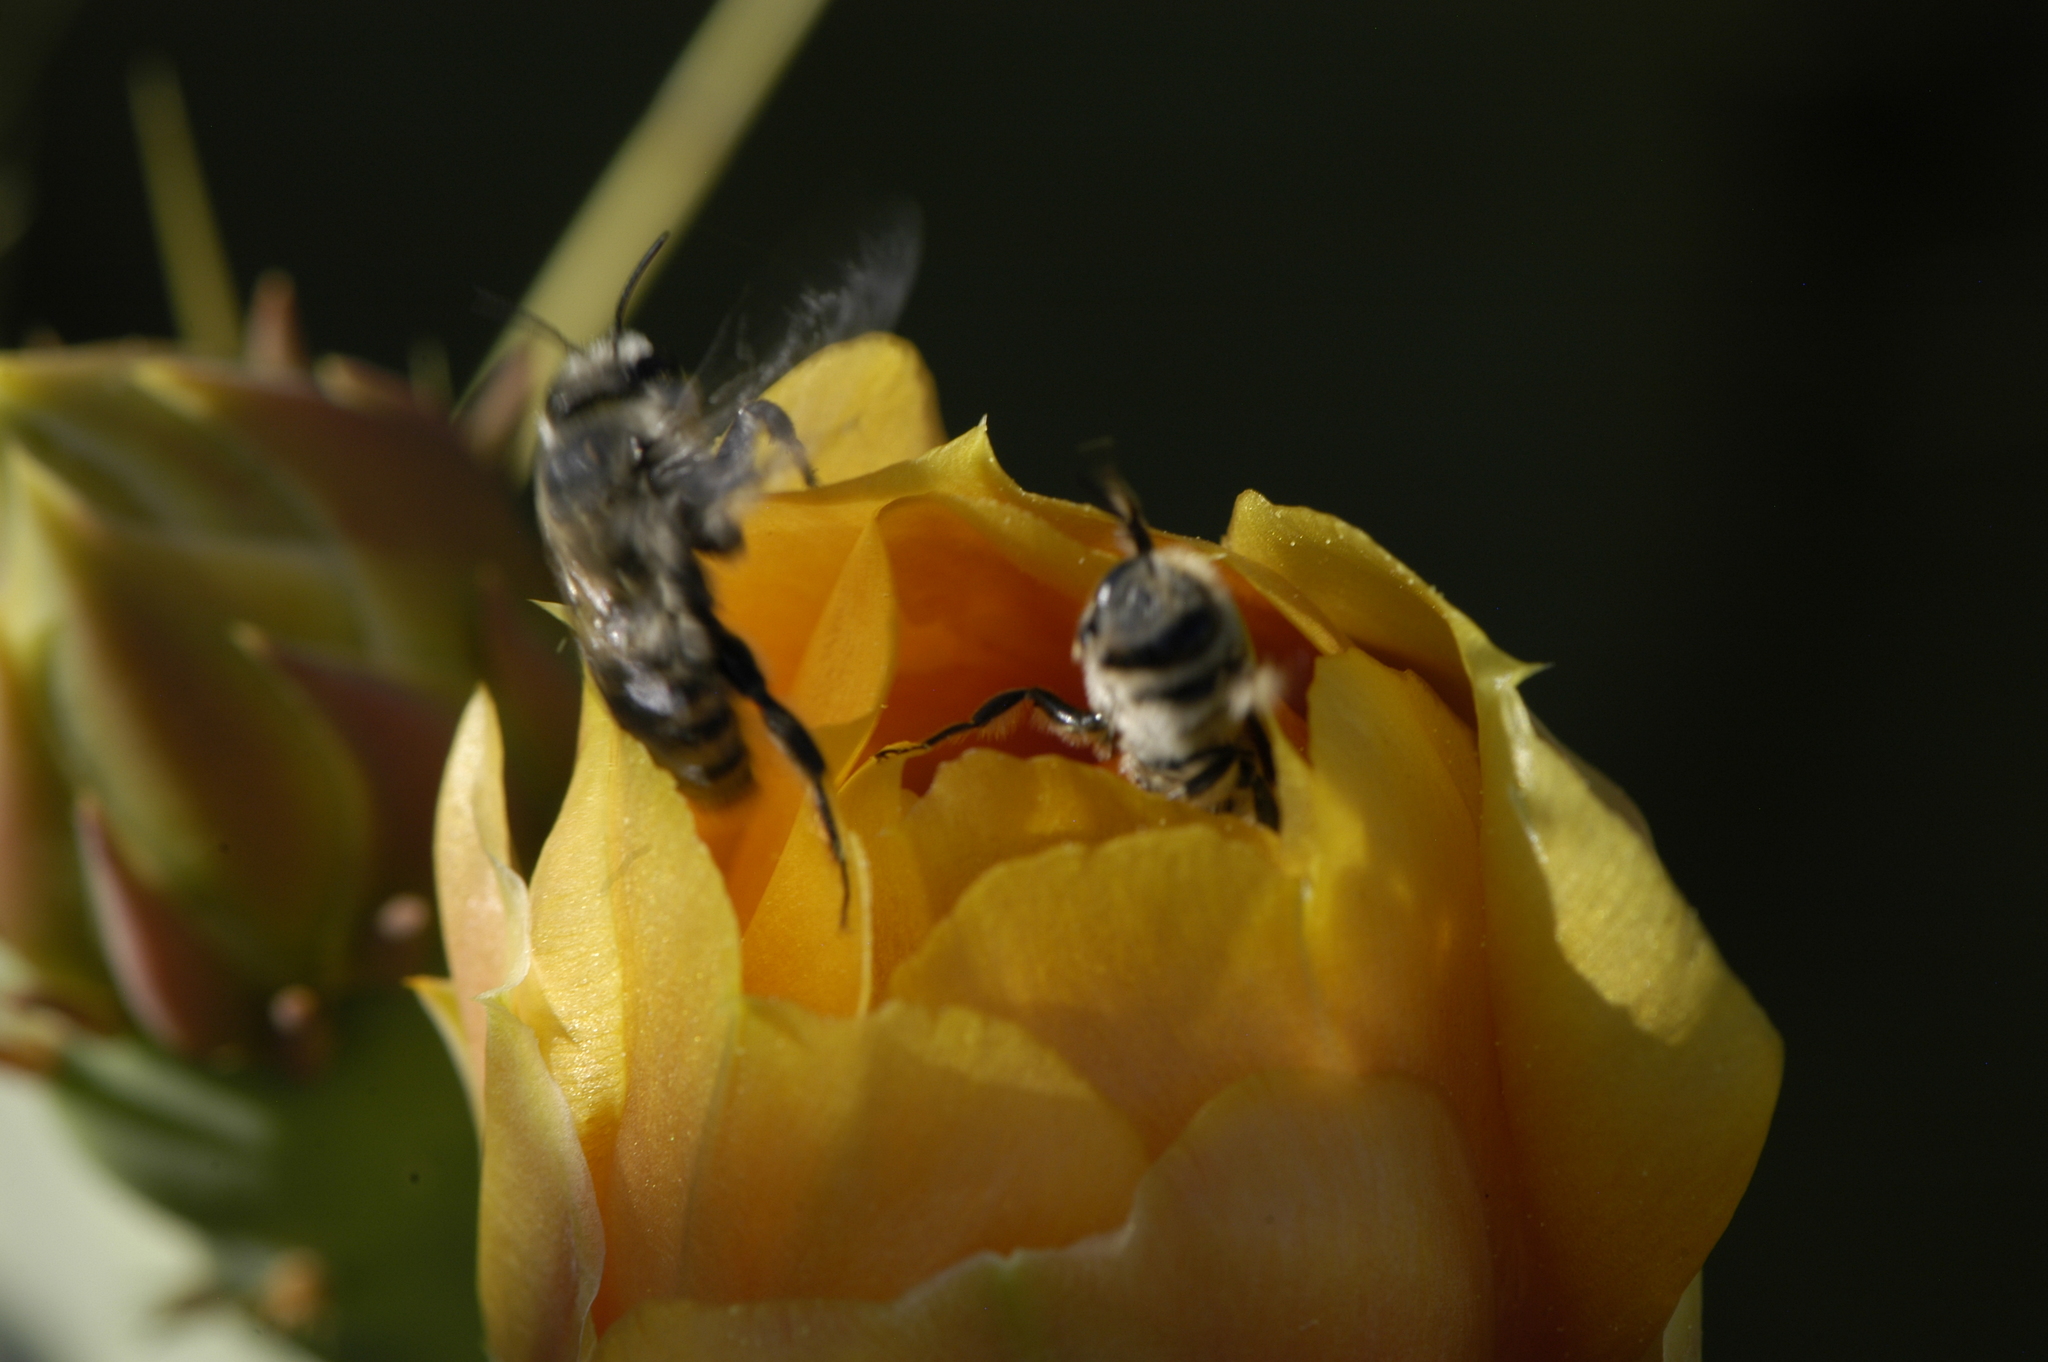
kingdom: Animalia
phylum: Arthropoda
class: Insecta
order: Hymenoptera
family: Megachilidae
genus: Lithurgopsis
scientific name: Lithurgopsis apicalis
